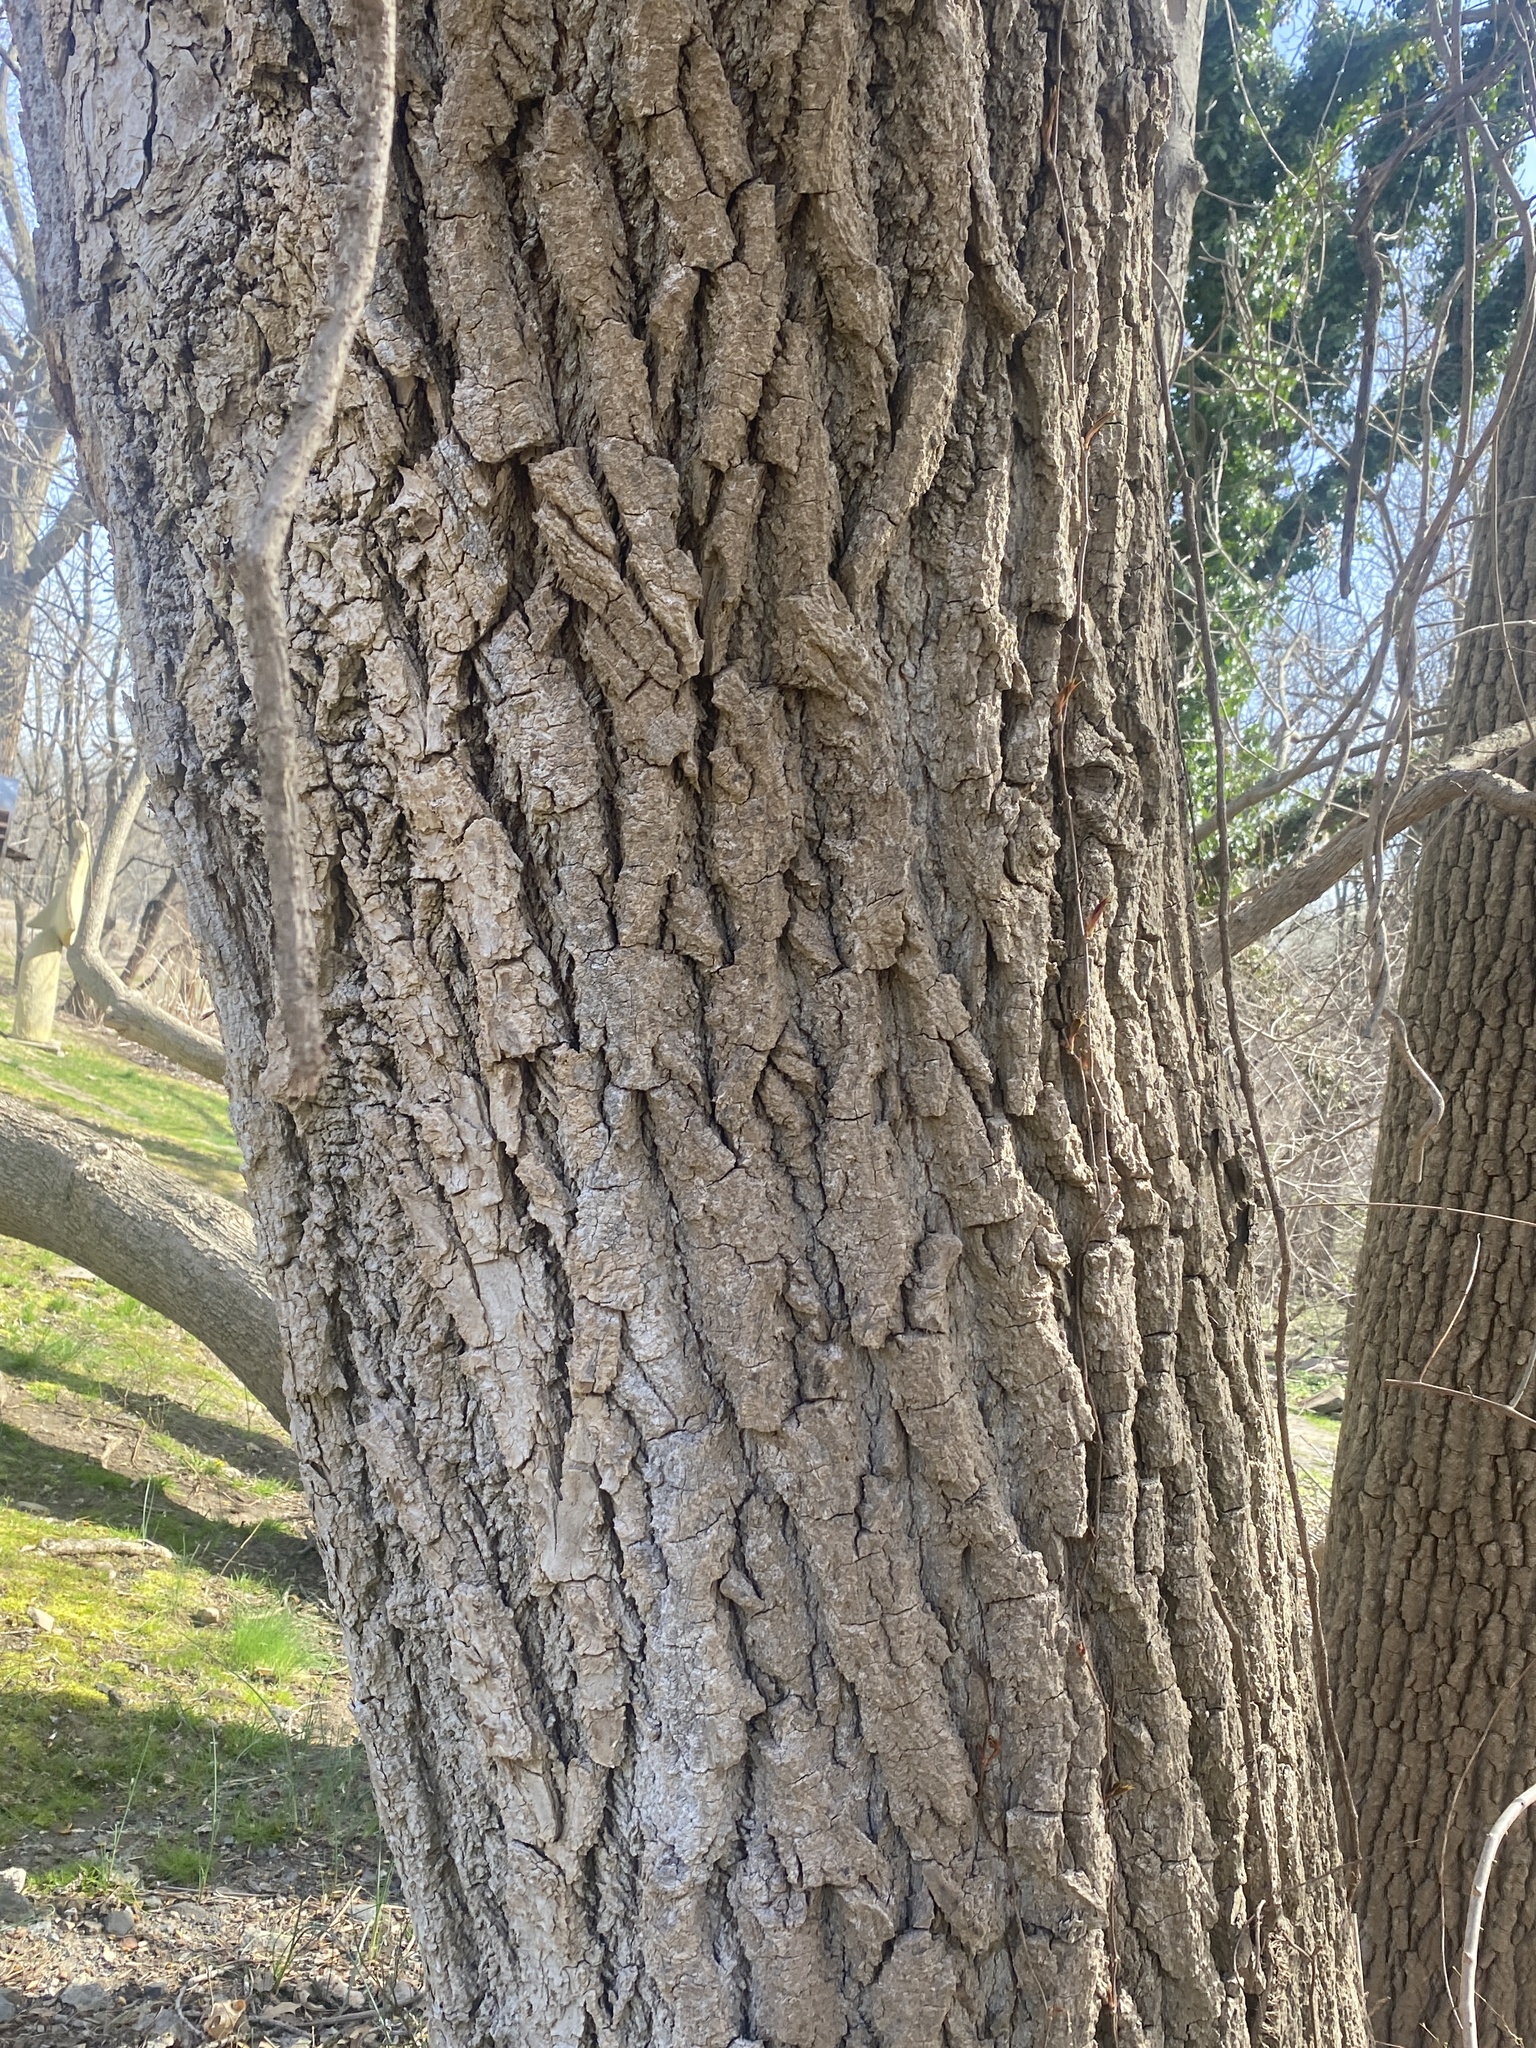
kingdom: Plantae
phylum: Tracheophyta
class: Magnoliopsida
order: Malpighiales
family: Salicaceae
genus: Populus
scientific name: Populus deltoides
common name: Eastern cottonwood
